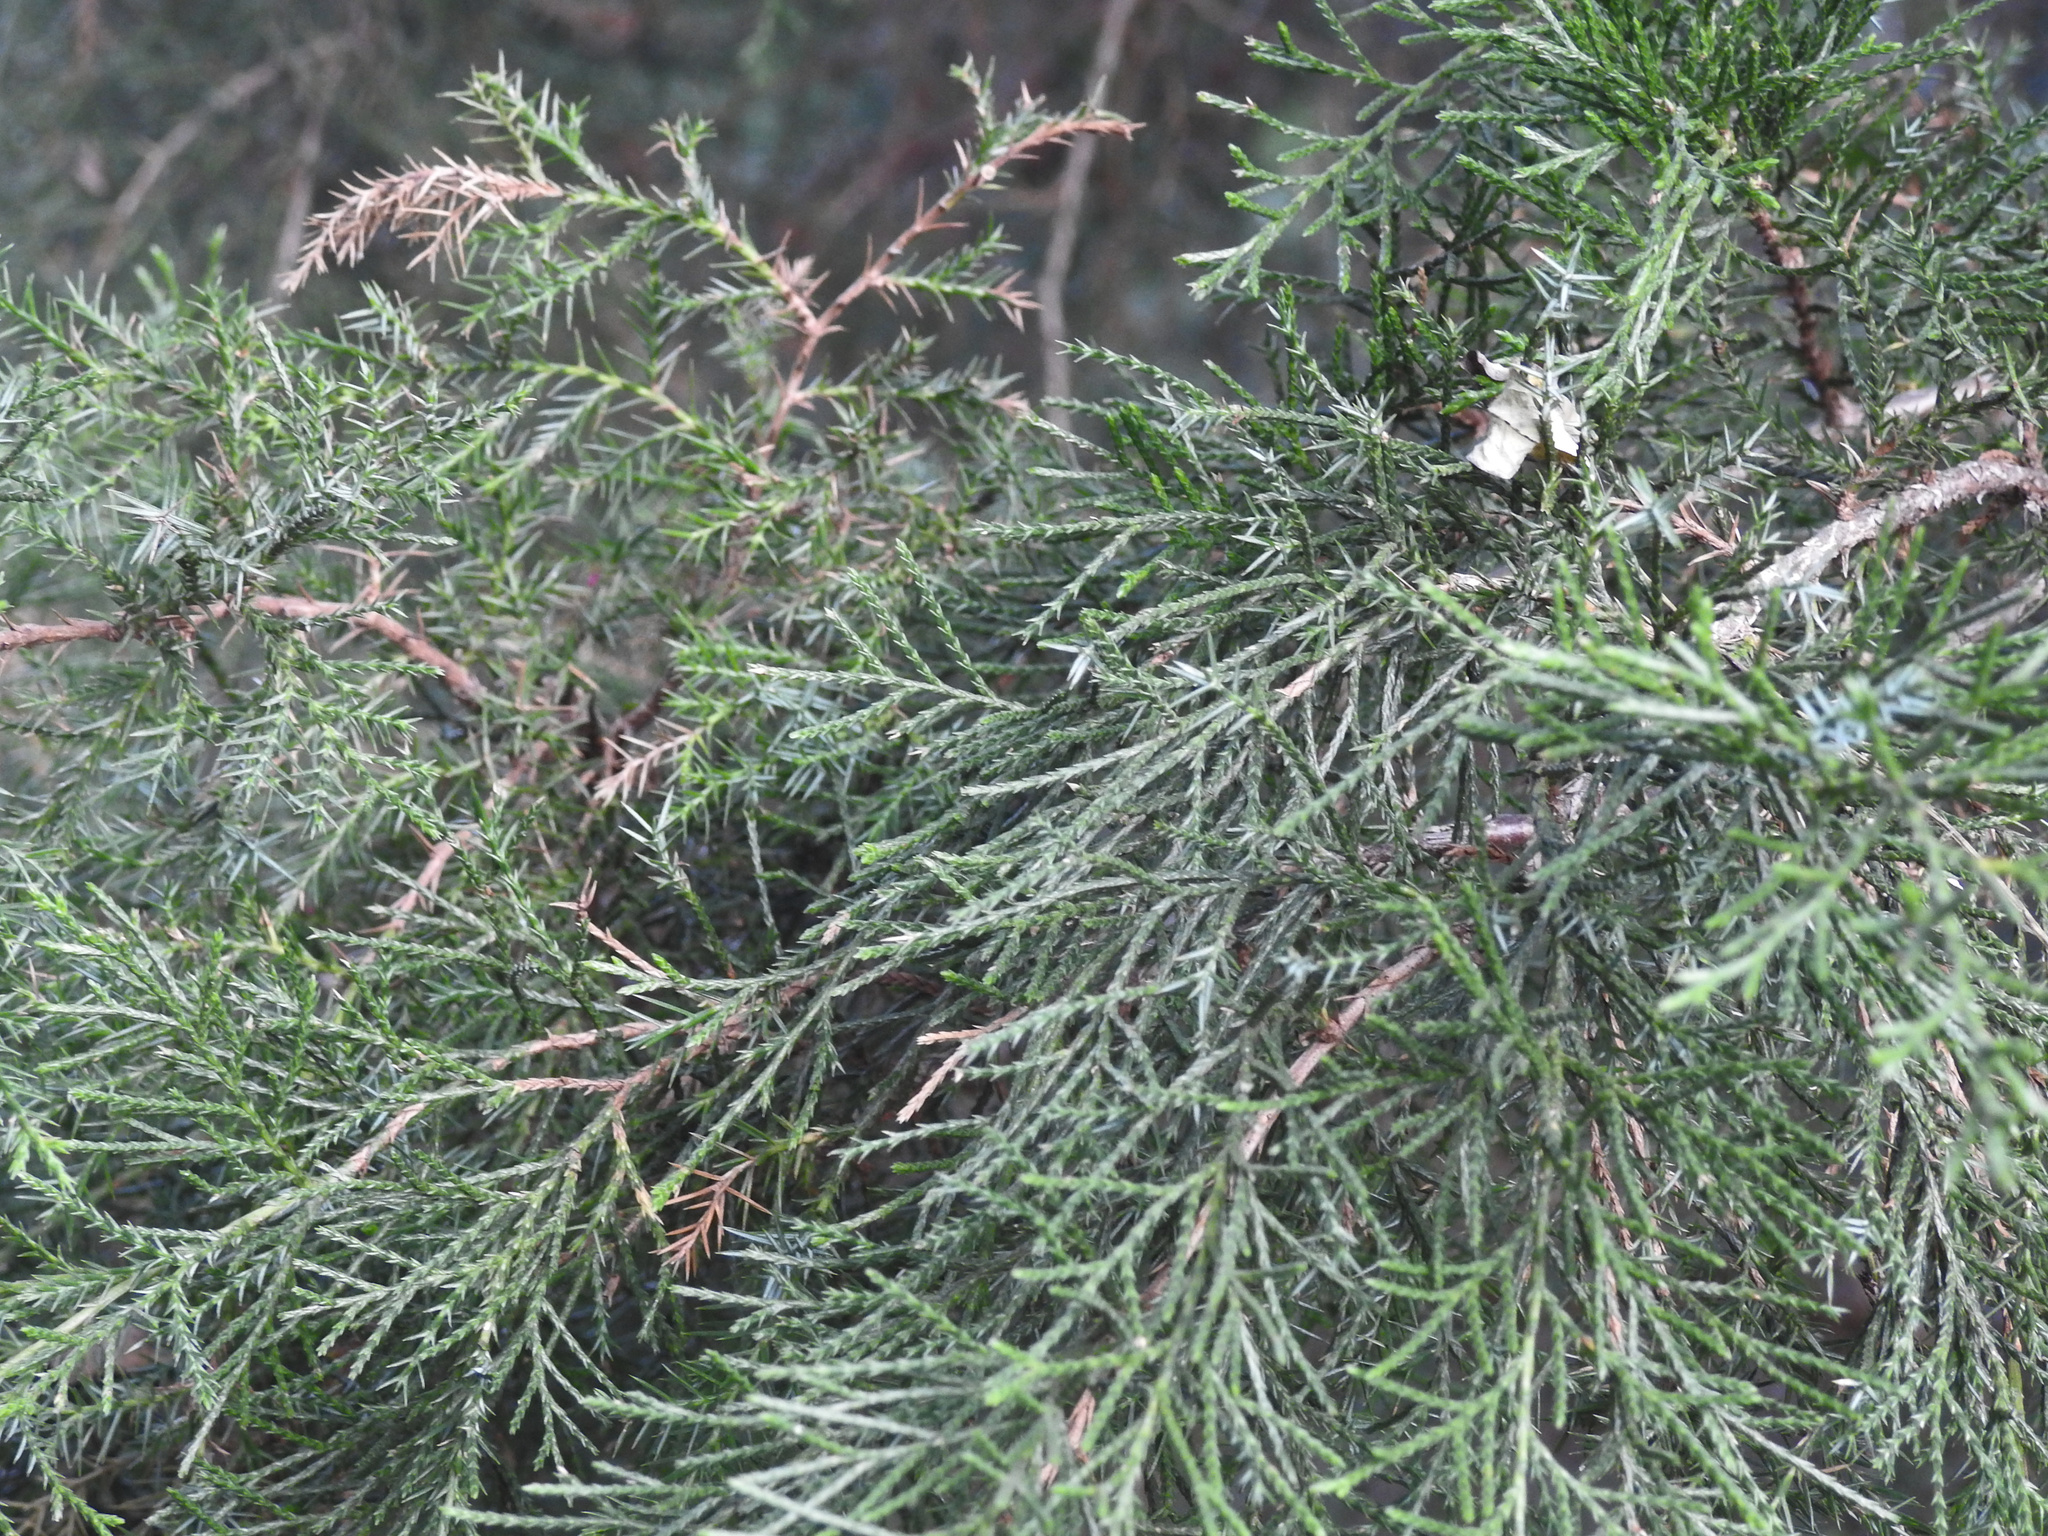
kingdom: Plantae
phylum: Tracheophyta
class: Pinopsida
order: Pinales
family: Cupressaceae
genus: Juniperus
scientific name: Juniperus virginiana
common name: Red juniper
